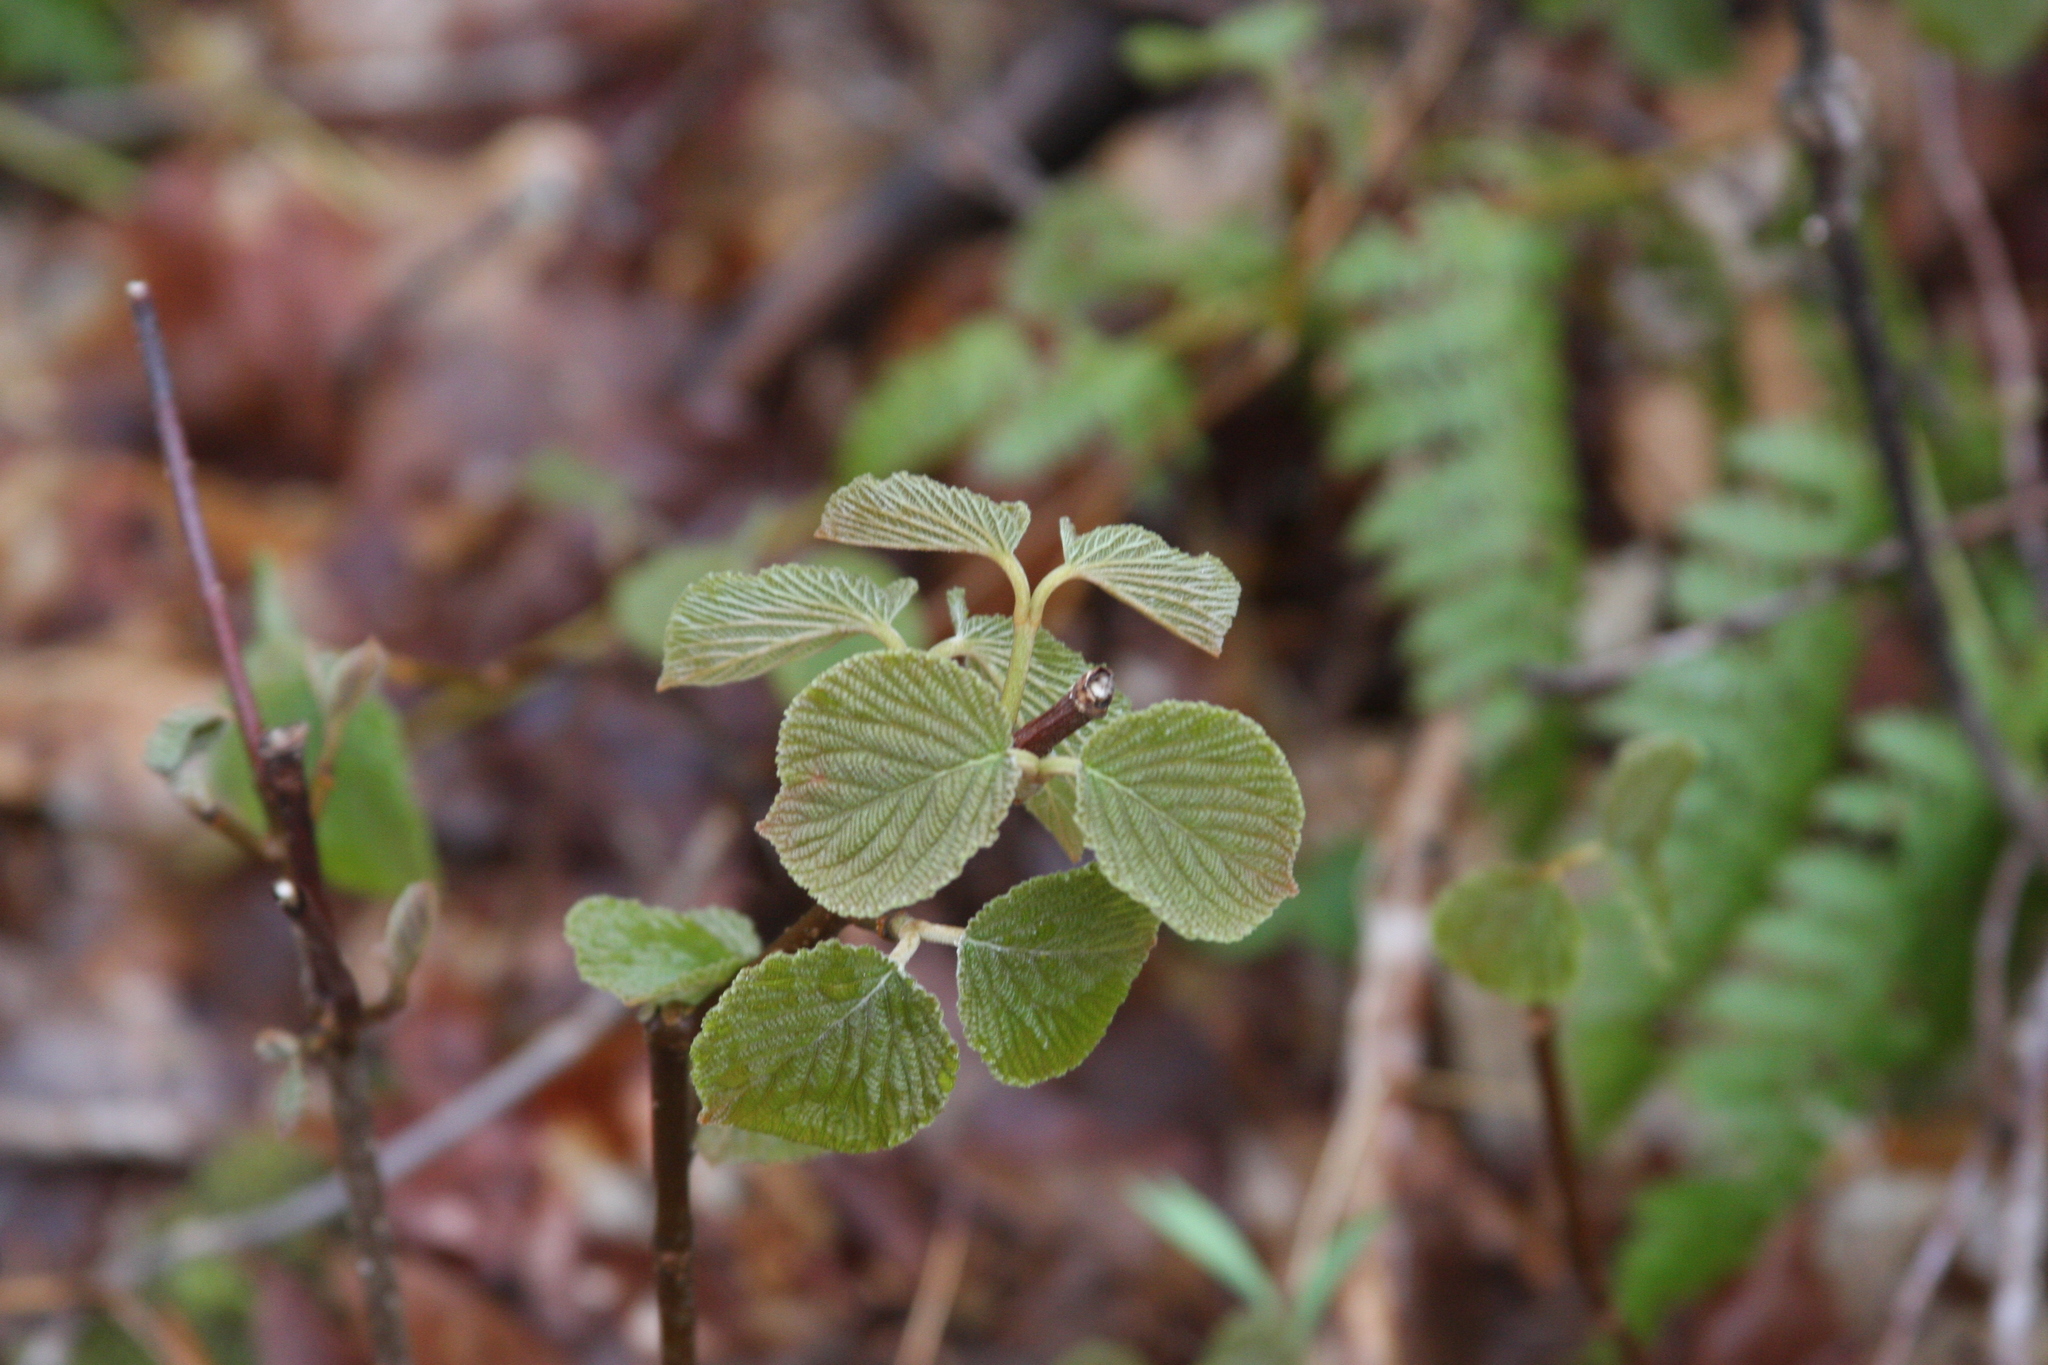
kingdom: Plantae
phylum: Tracheophyta
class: Magnoliopsida
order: Dipsacales
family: Viburnaceae
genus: Viburnum
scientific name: Viburnum lantanoides
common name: Hobblebush
